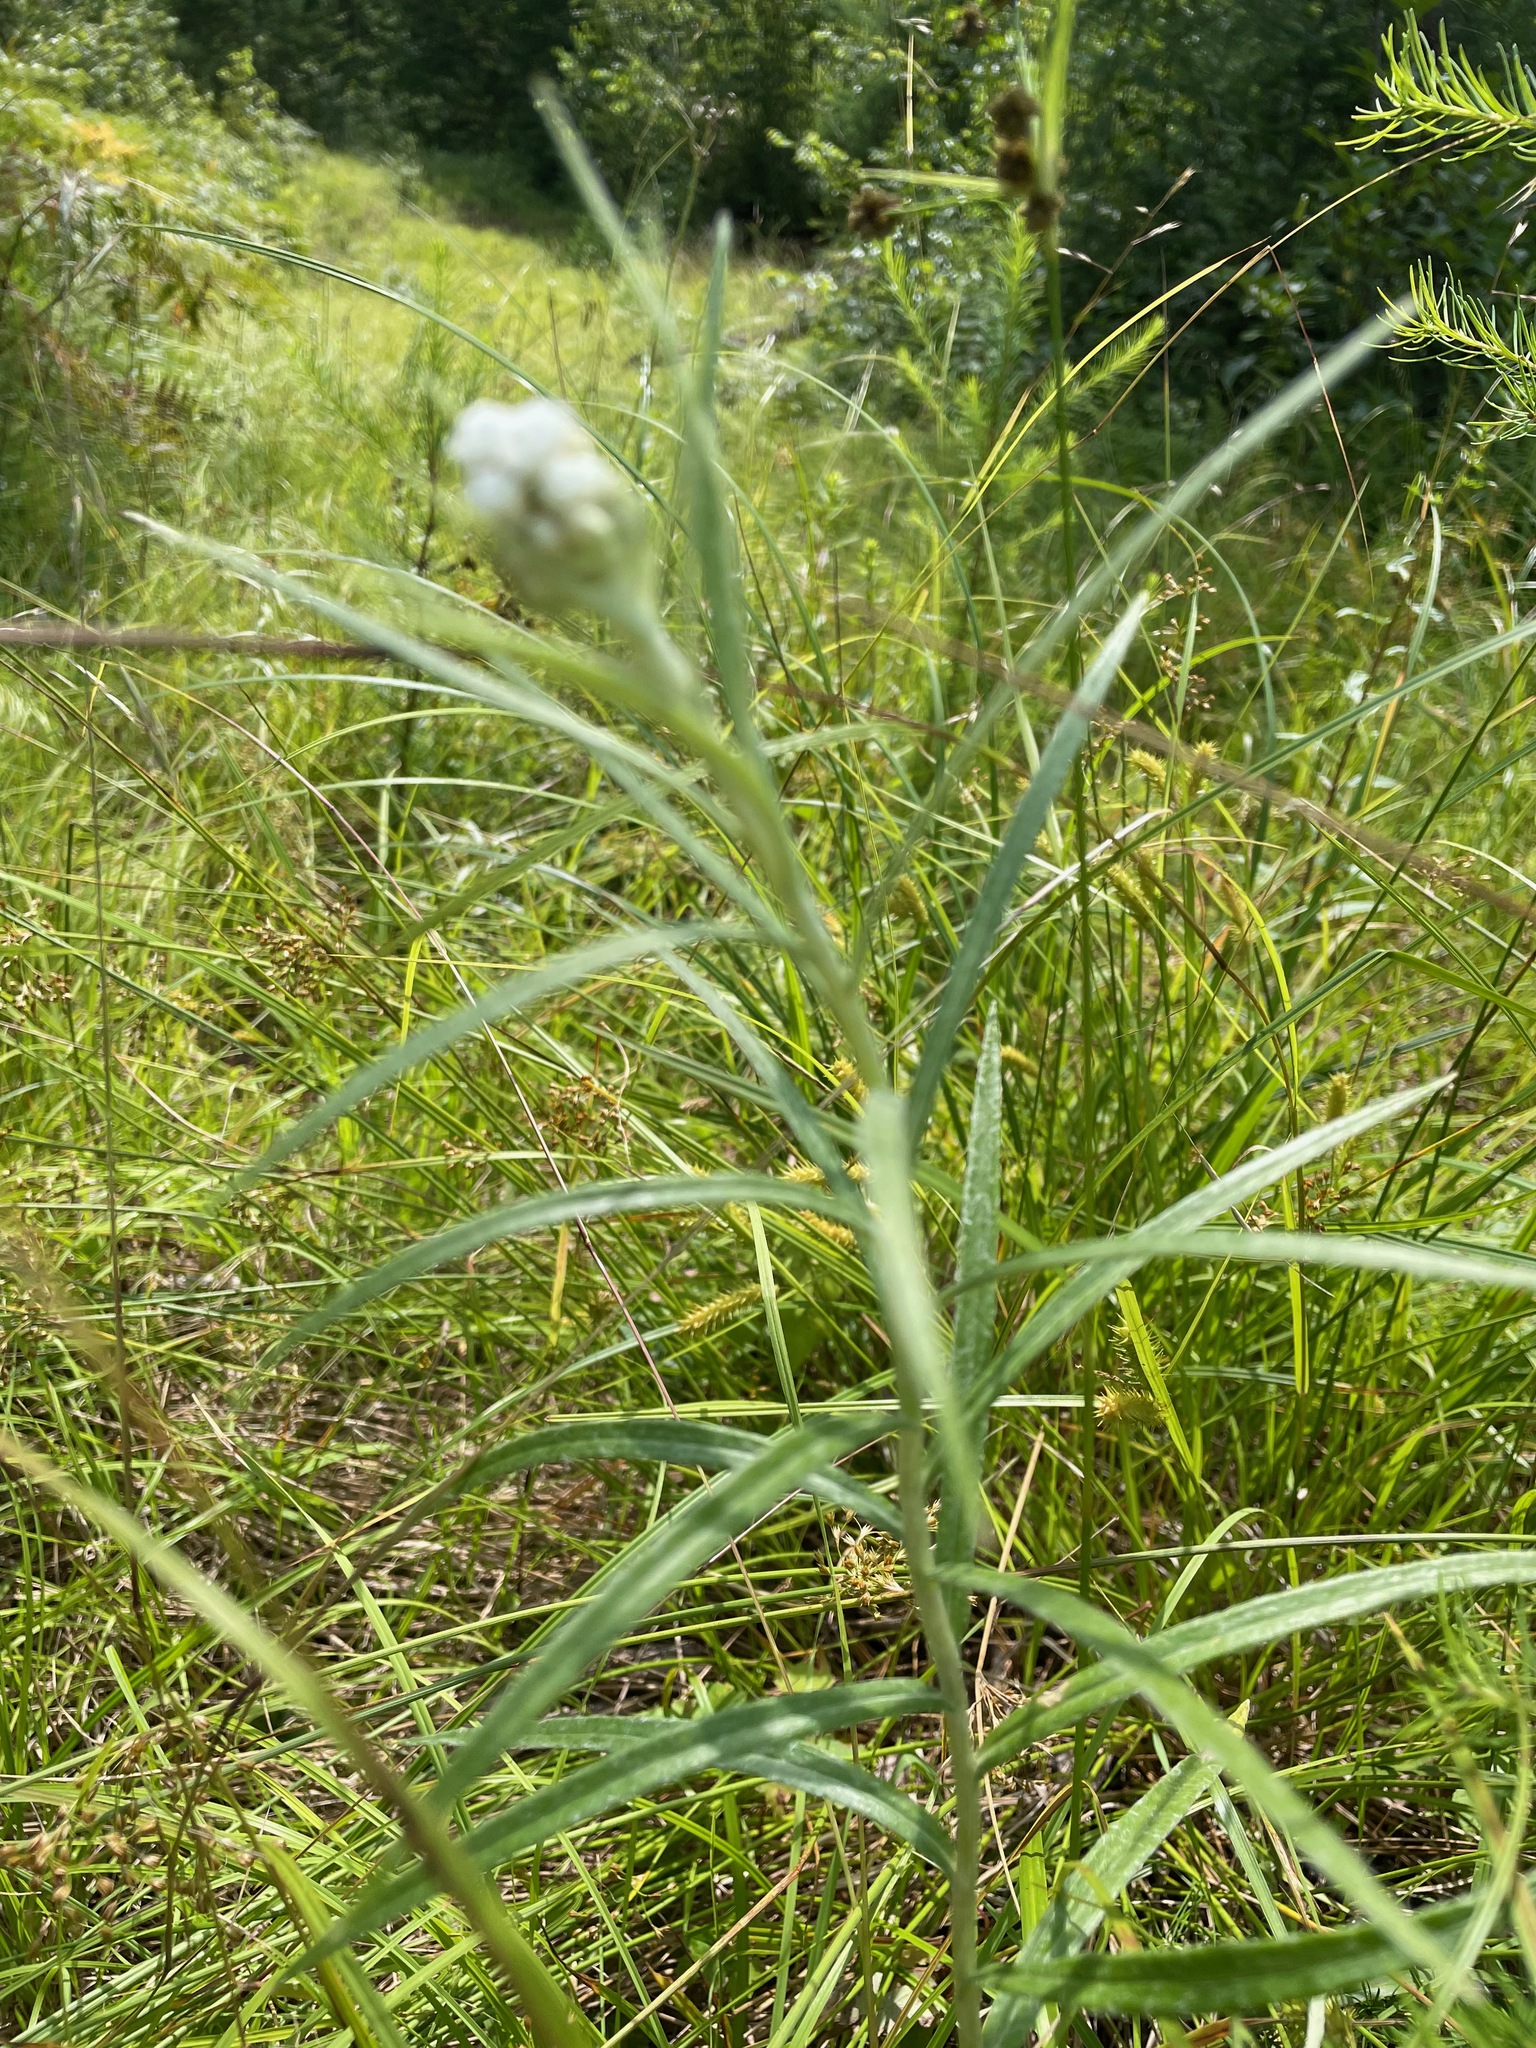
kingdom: Plantae
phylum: Tracheophyta
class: Magnoliopsida
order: Asterales
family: Asteraceae
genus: Anaphalis
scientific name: Anaphalis margaritacea
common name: Pearly everlasting
